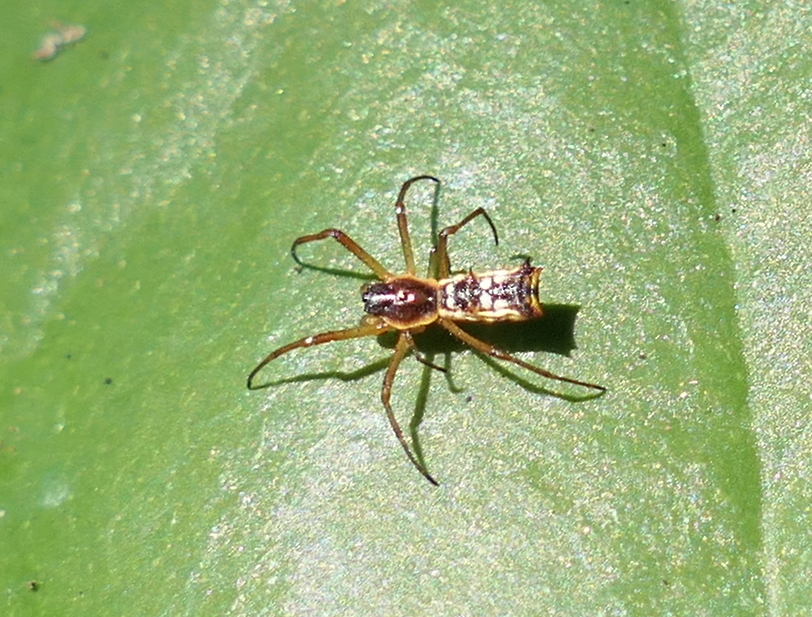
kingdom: Animalia
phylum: Arthropoda
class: Arachnida
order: Araneae
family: Araneidae
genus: Micrathena
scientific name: Micrathena fissispina
